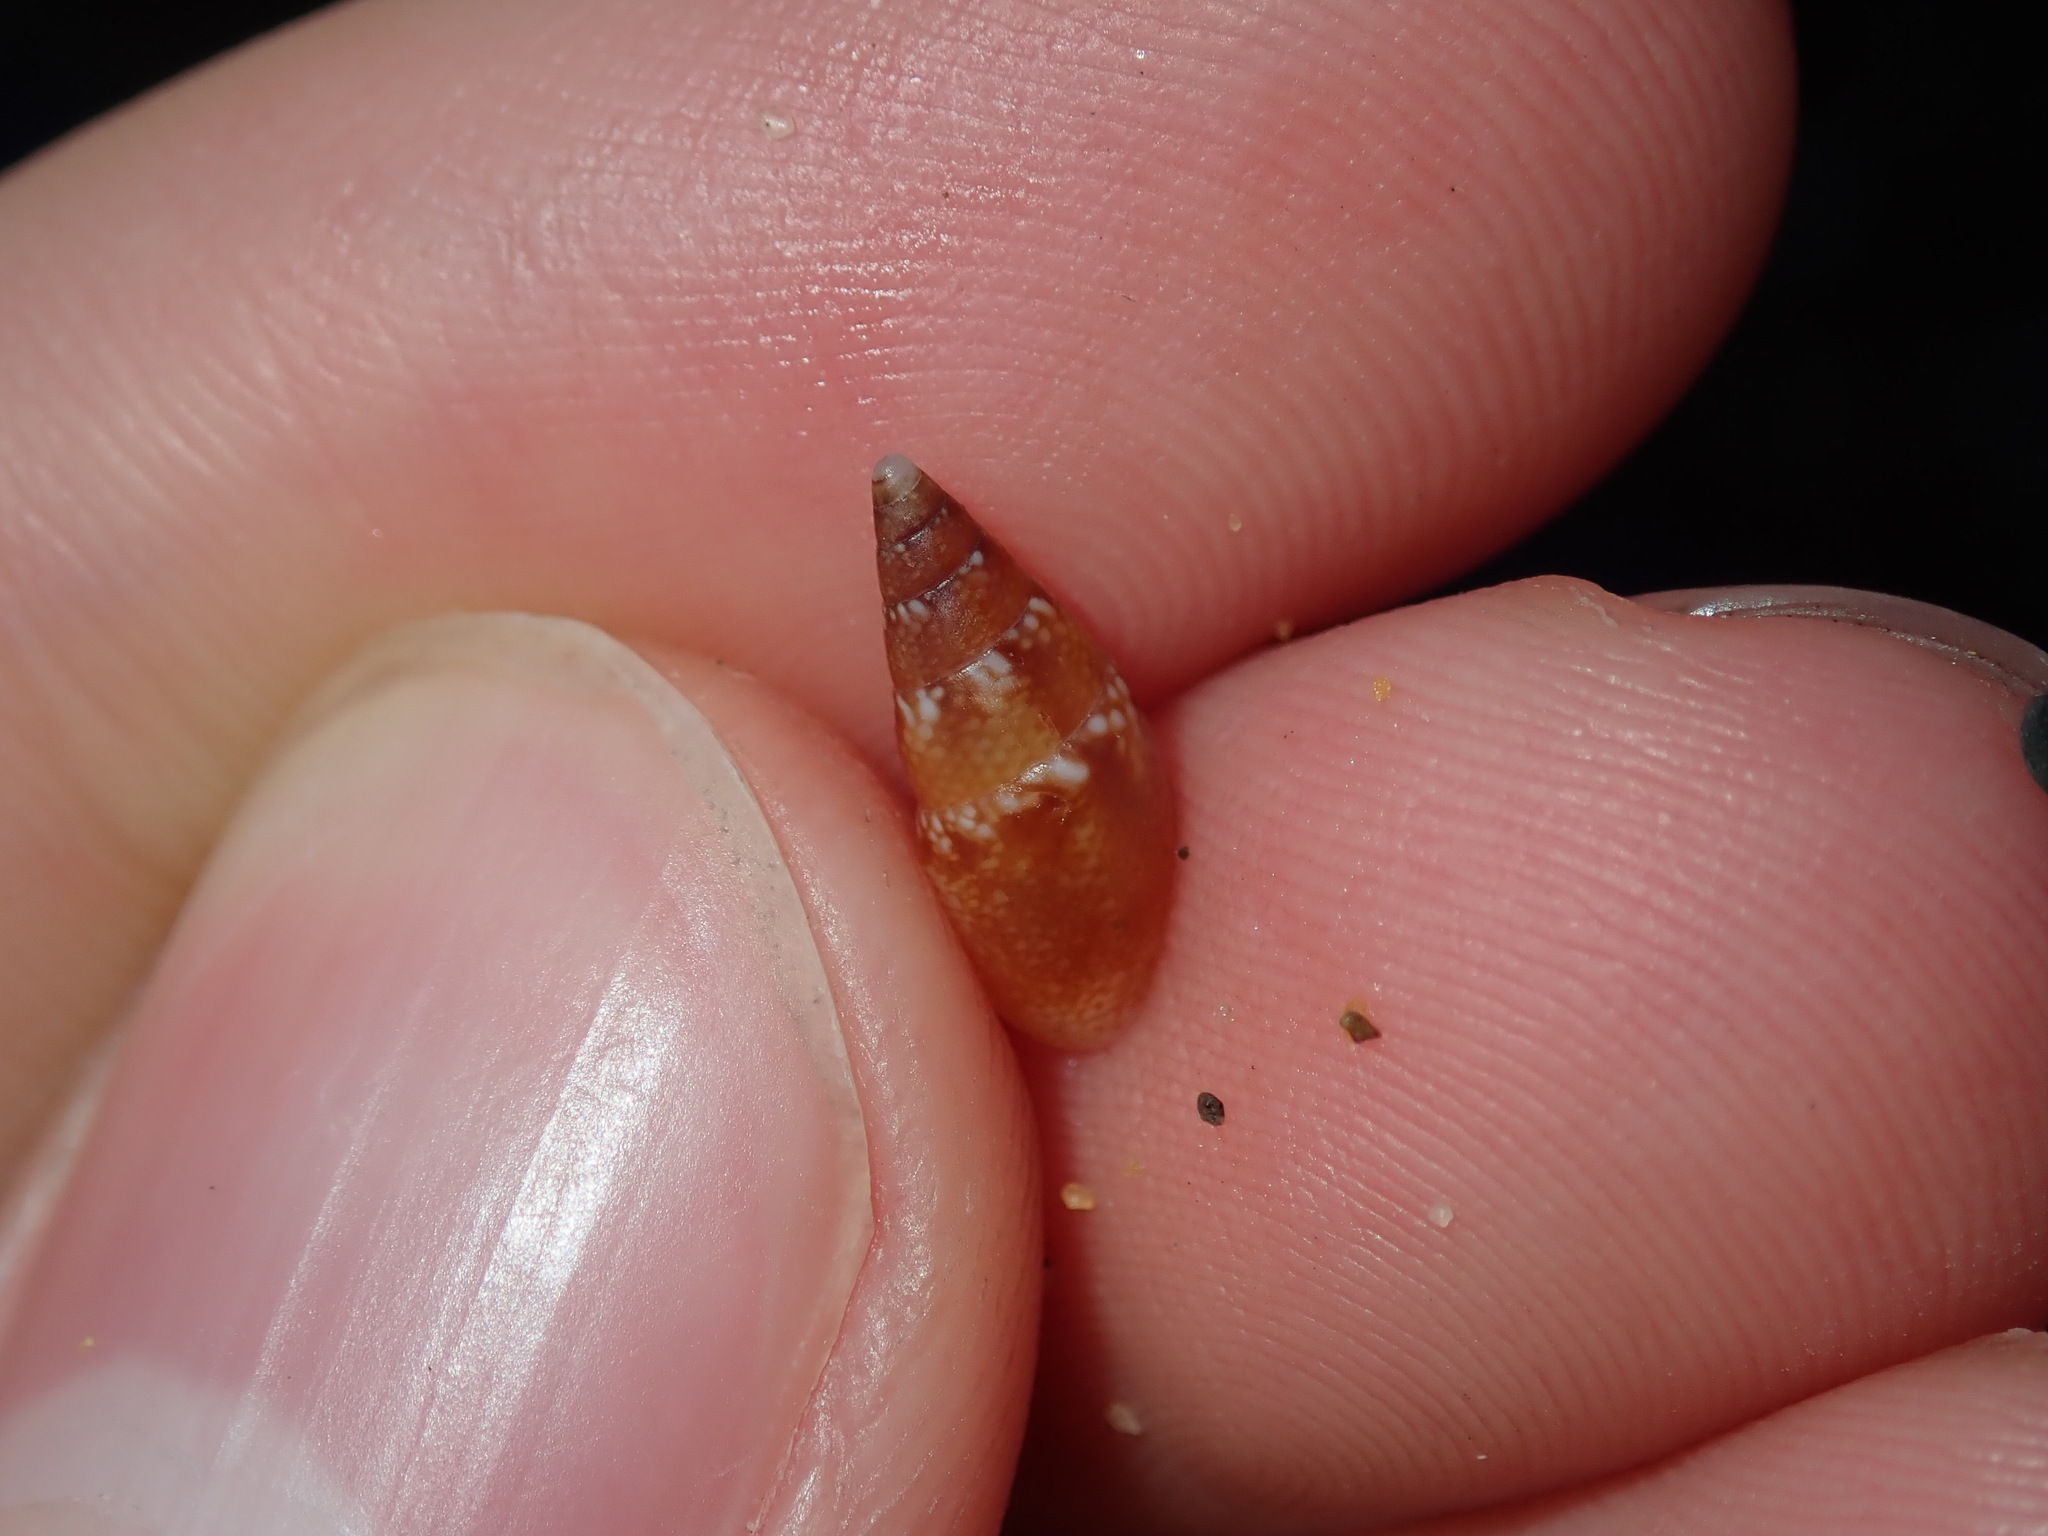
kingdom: Animalia
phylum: Mollusca
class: Gastropoda
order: Neogastropoda
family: Columbellidae
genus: Mitrella
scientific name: Mitrella tayloriana
